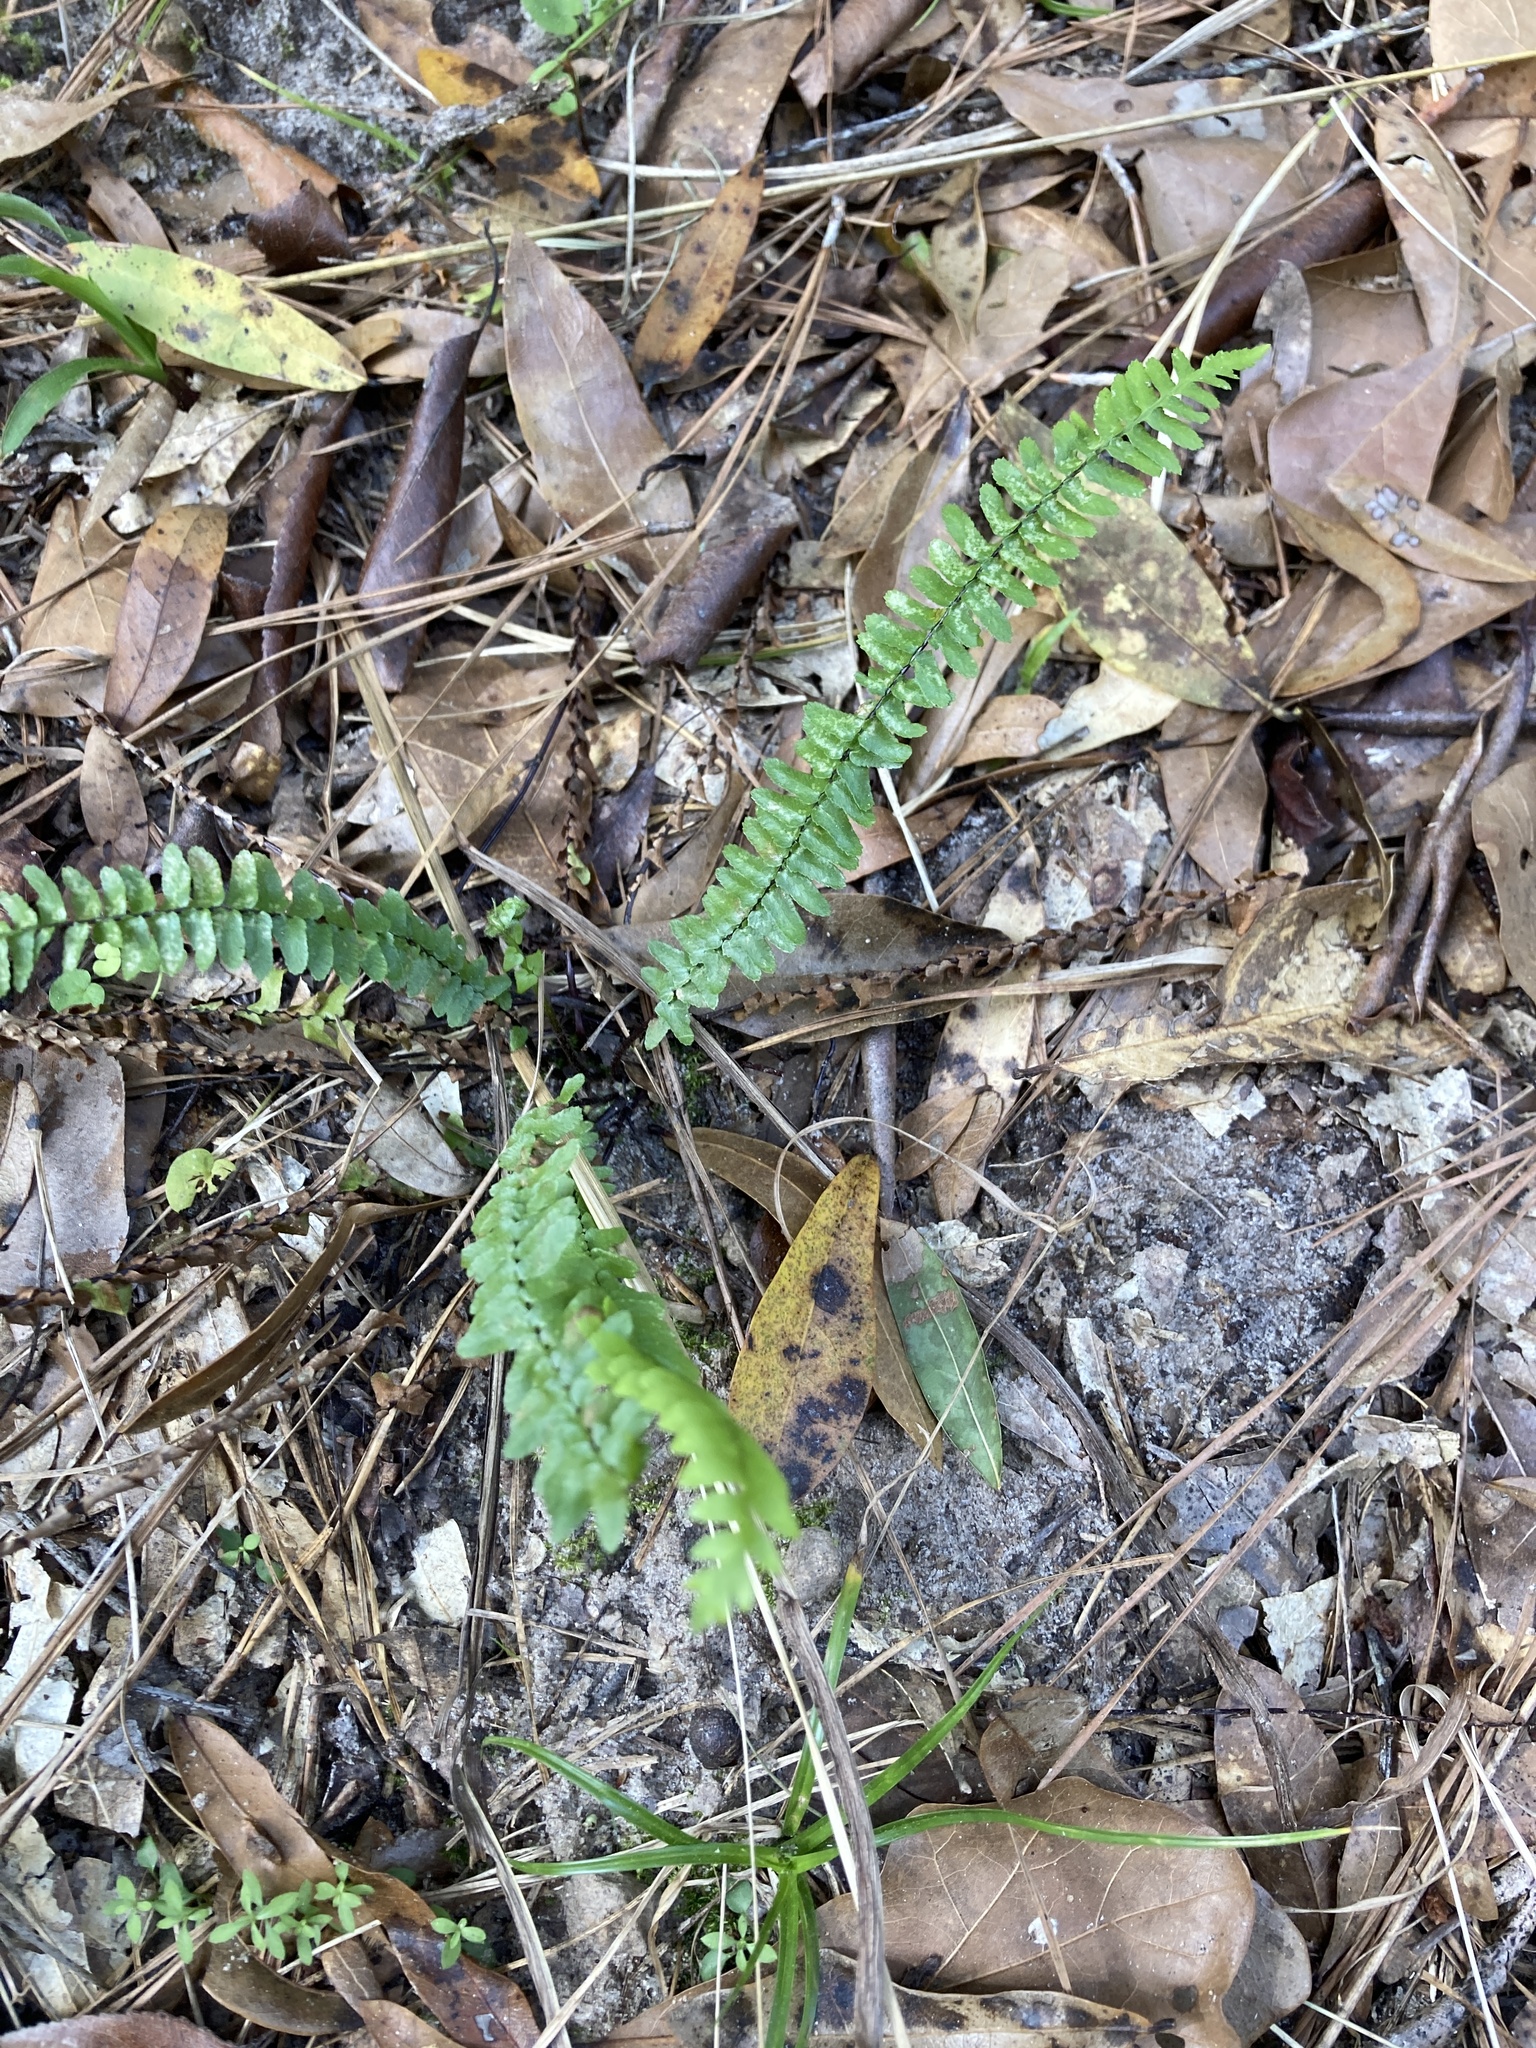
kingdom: Plantae
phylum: Tracheophyta
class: Polypodiopsida
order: Polypodiales
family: Aspleniaceae
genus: Asplenium
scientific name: Asplenium platyneuron
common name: Ebony spleenwort
